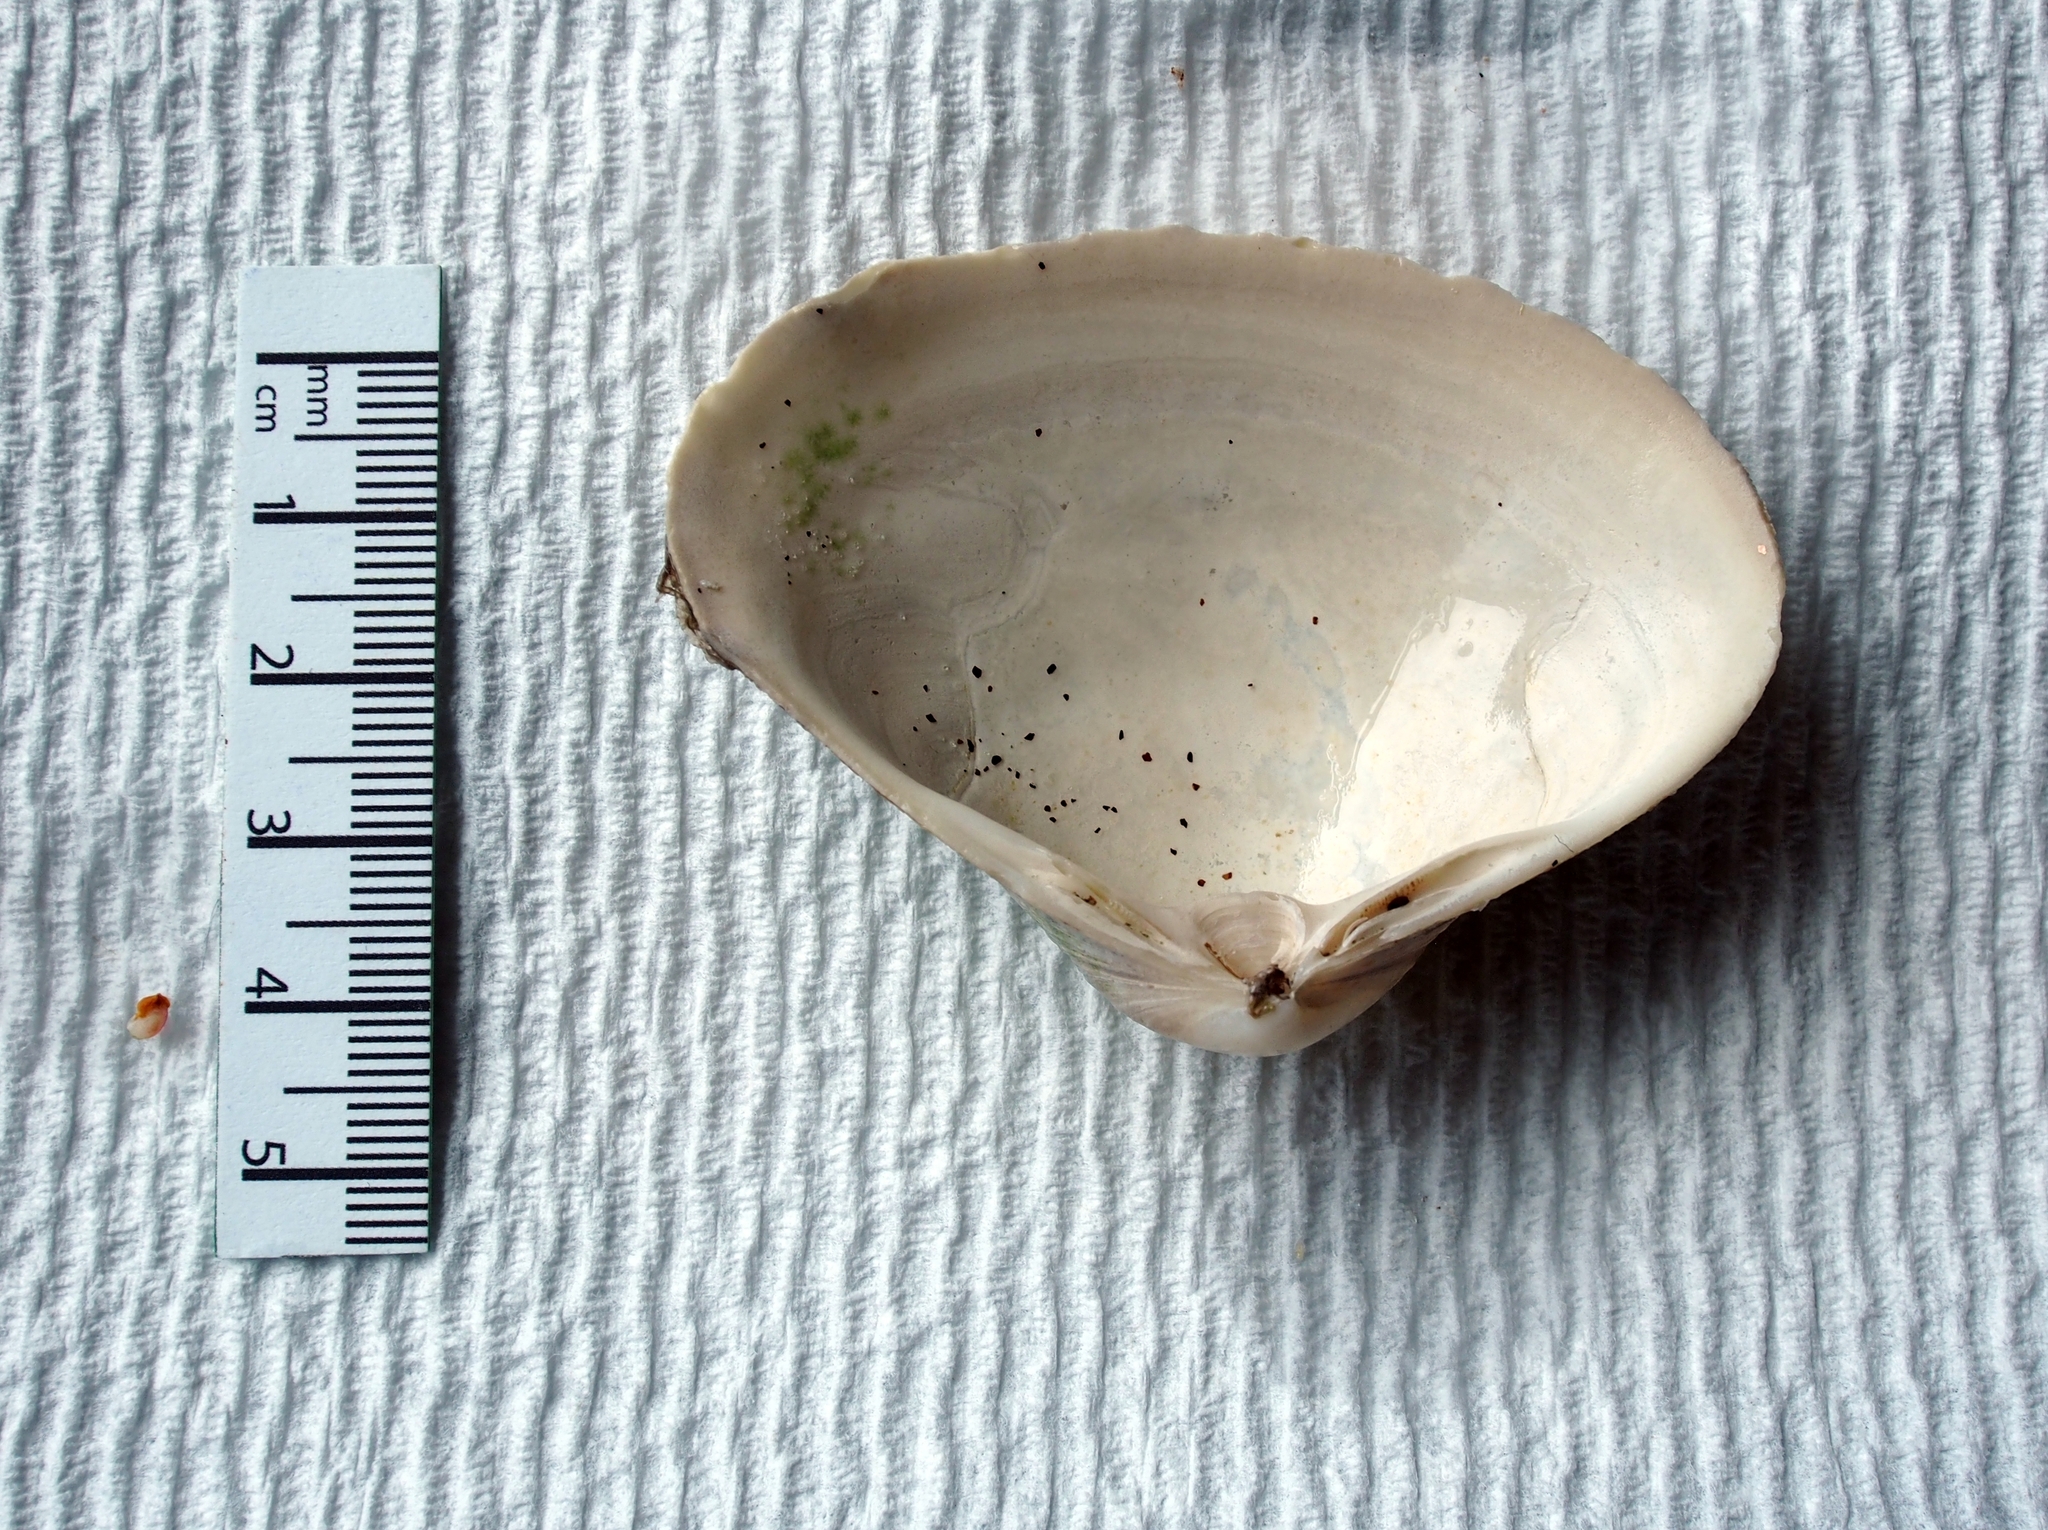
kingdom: Animalia
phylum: Mollusca
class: Bivalvia
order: Venerida
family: Mactridae
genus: Spisula
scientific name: Spisula solidissima
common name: Atlantic surf clam
